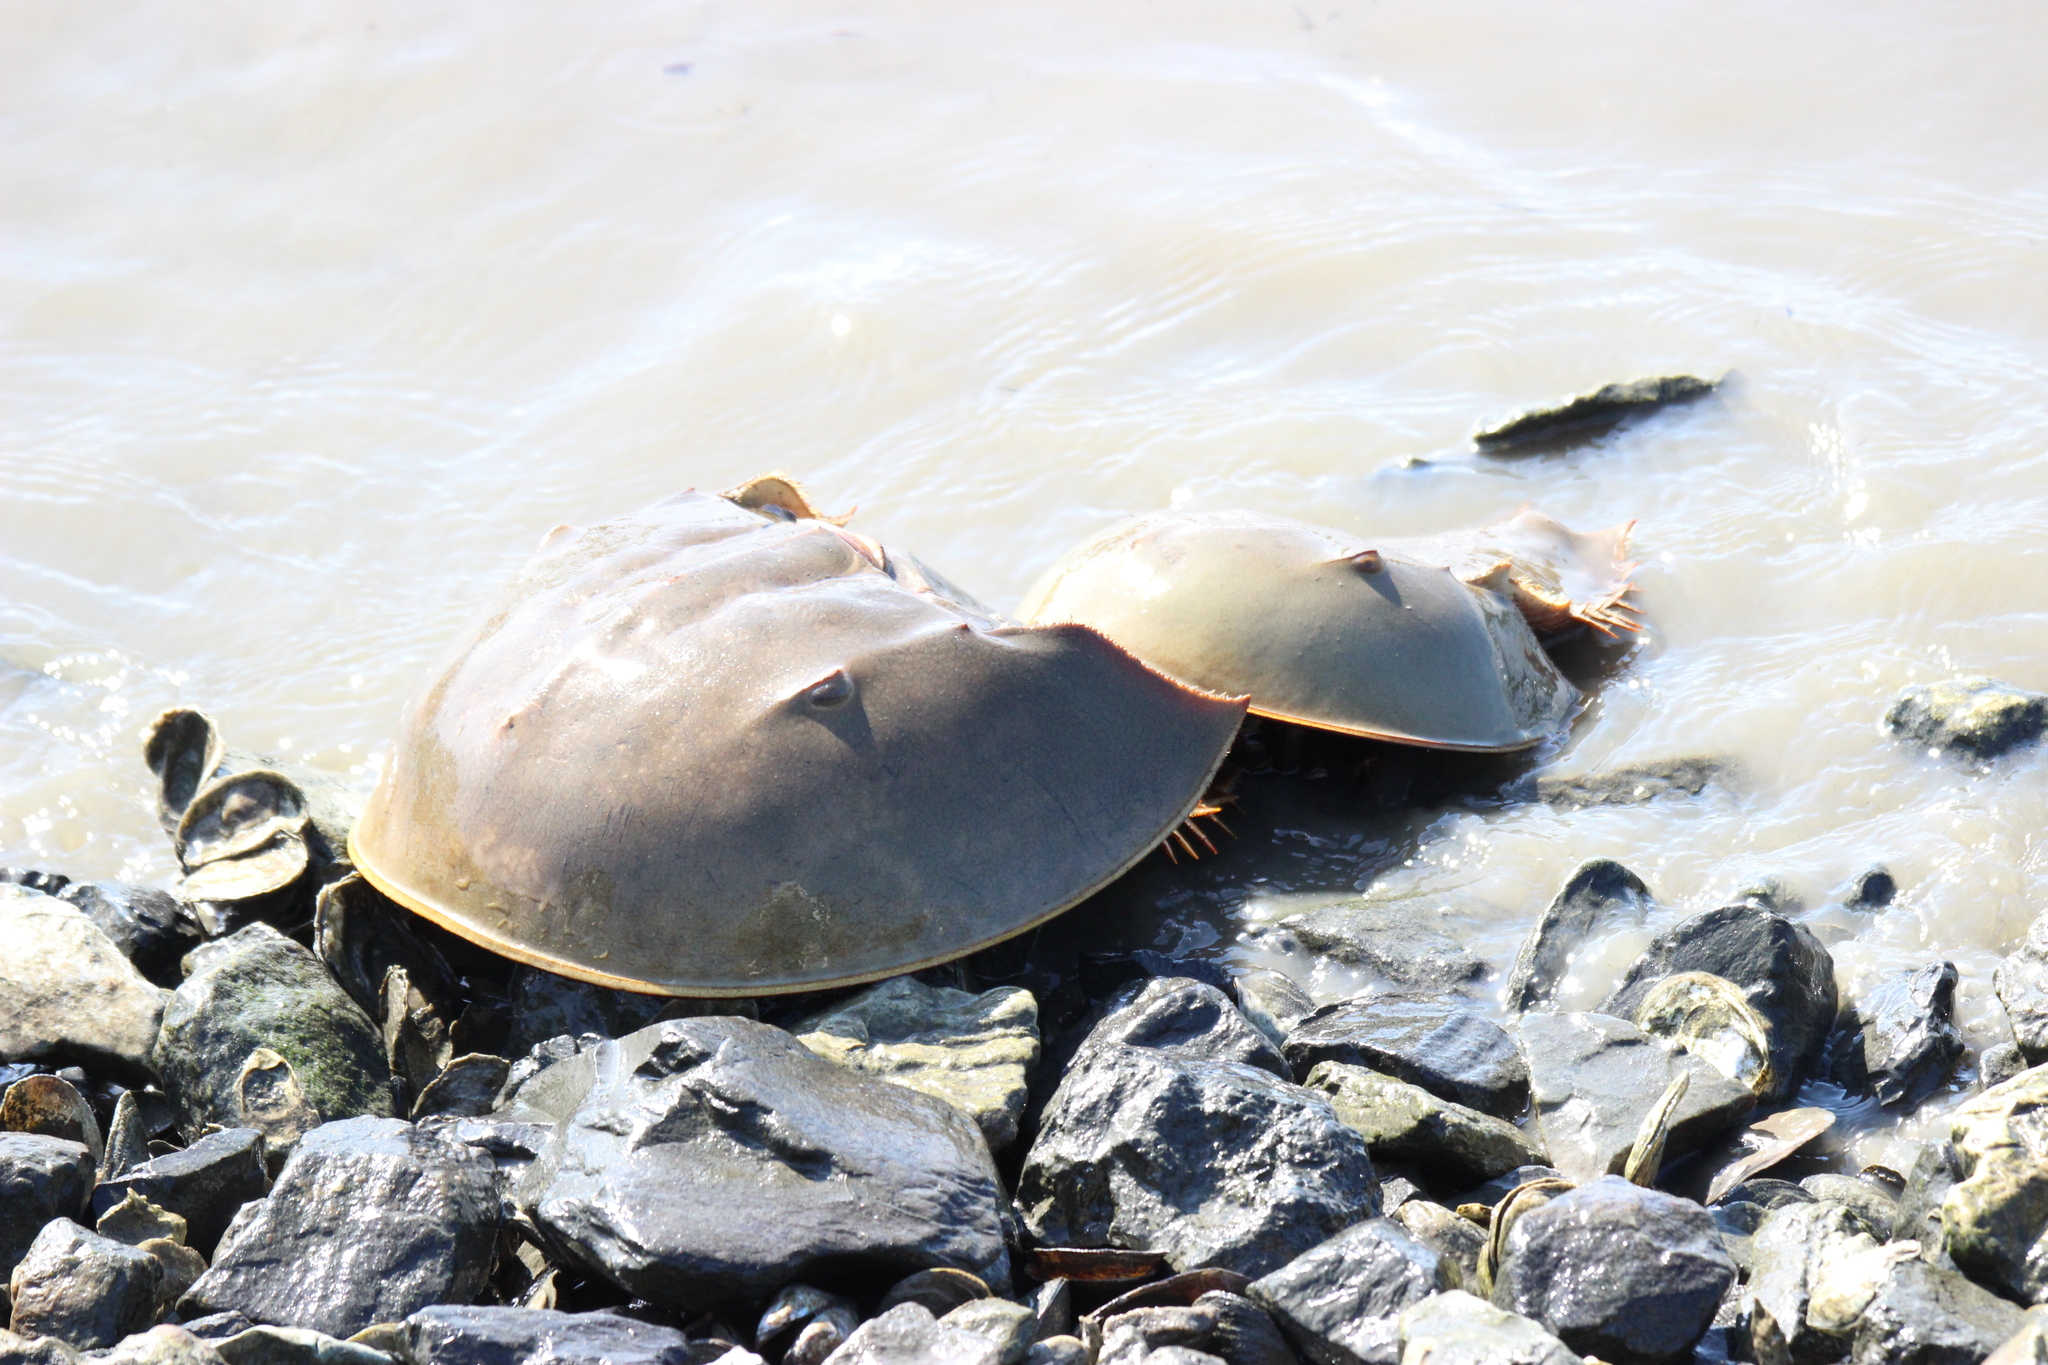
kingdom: Animalia
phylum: Arthropoda
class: Merostomata
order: Xiphosurida
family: Limulidae
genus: Limulus
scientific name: Limulus polyphemus
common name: Horseshoe crab
